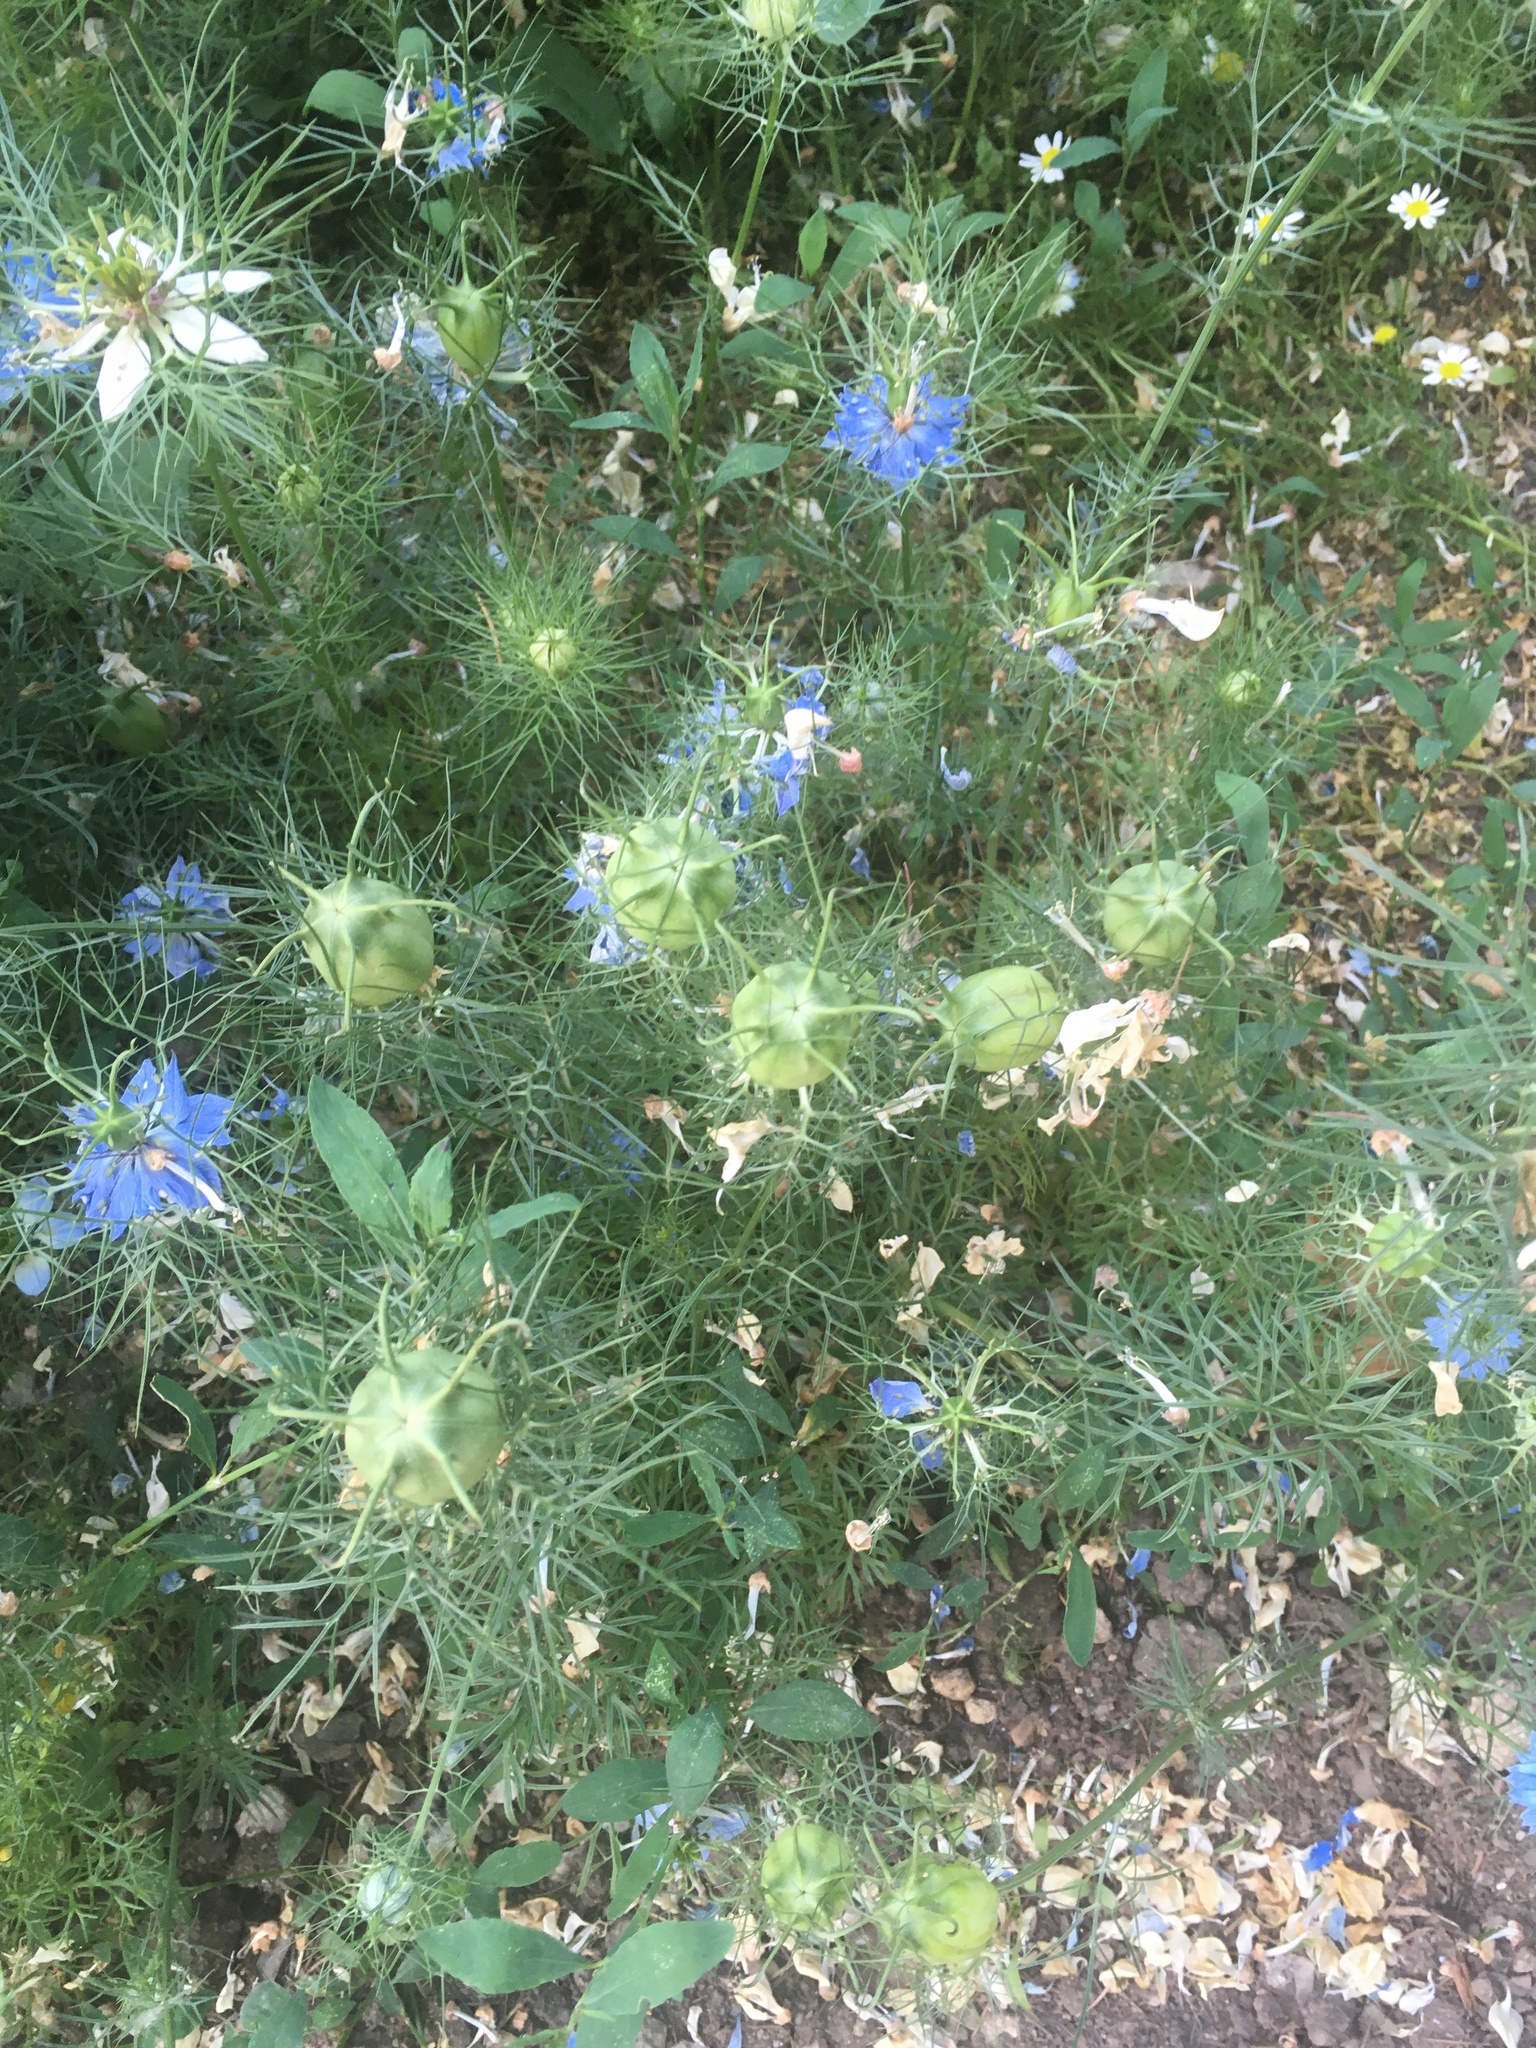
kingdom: Plantae
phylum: Tracheophyta
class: Magnoliopsida
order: Ranunculales
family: Ranunculaceae
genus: Nigella
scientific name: Nigella damascena
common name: Love-in-a-mist
